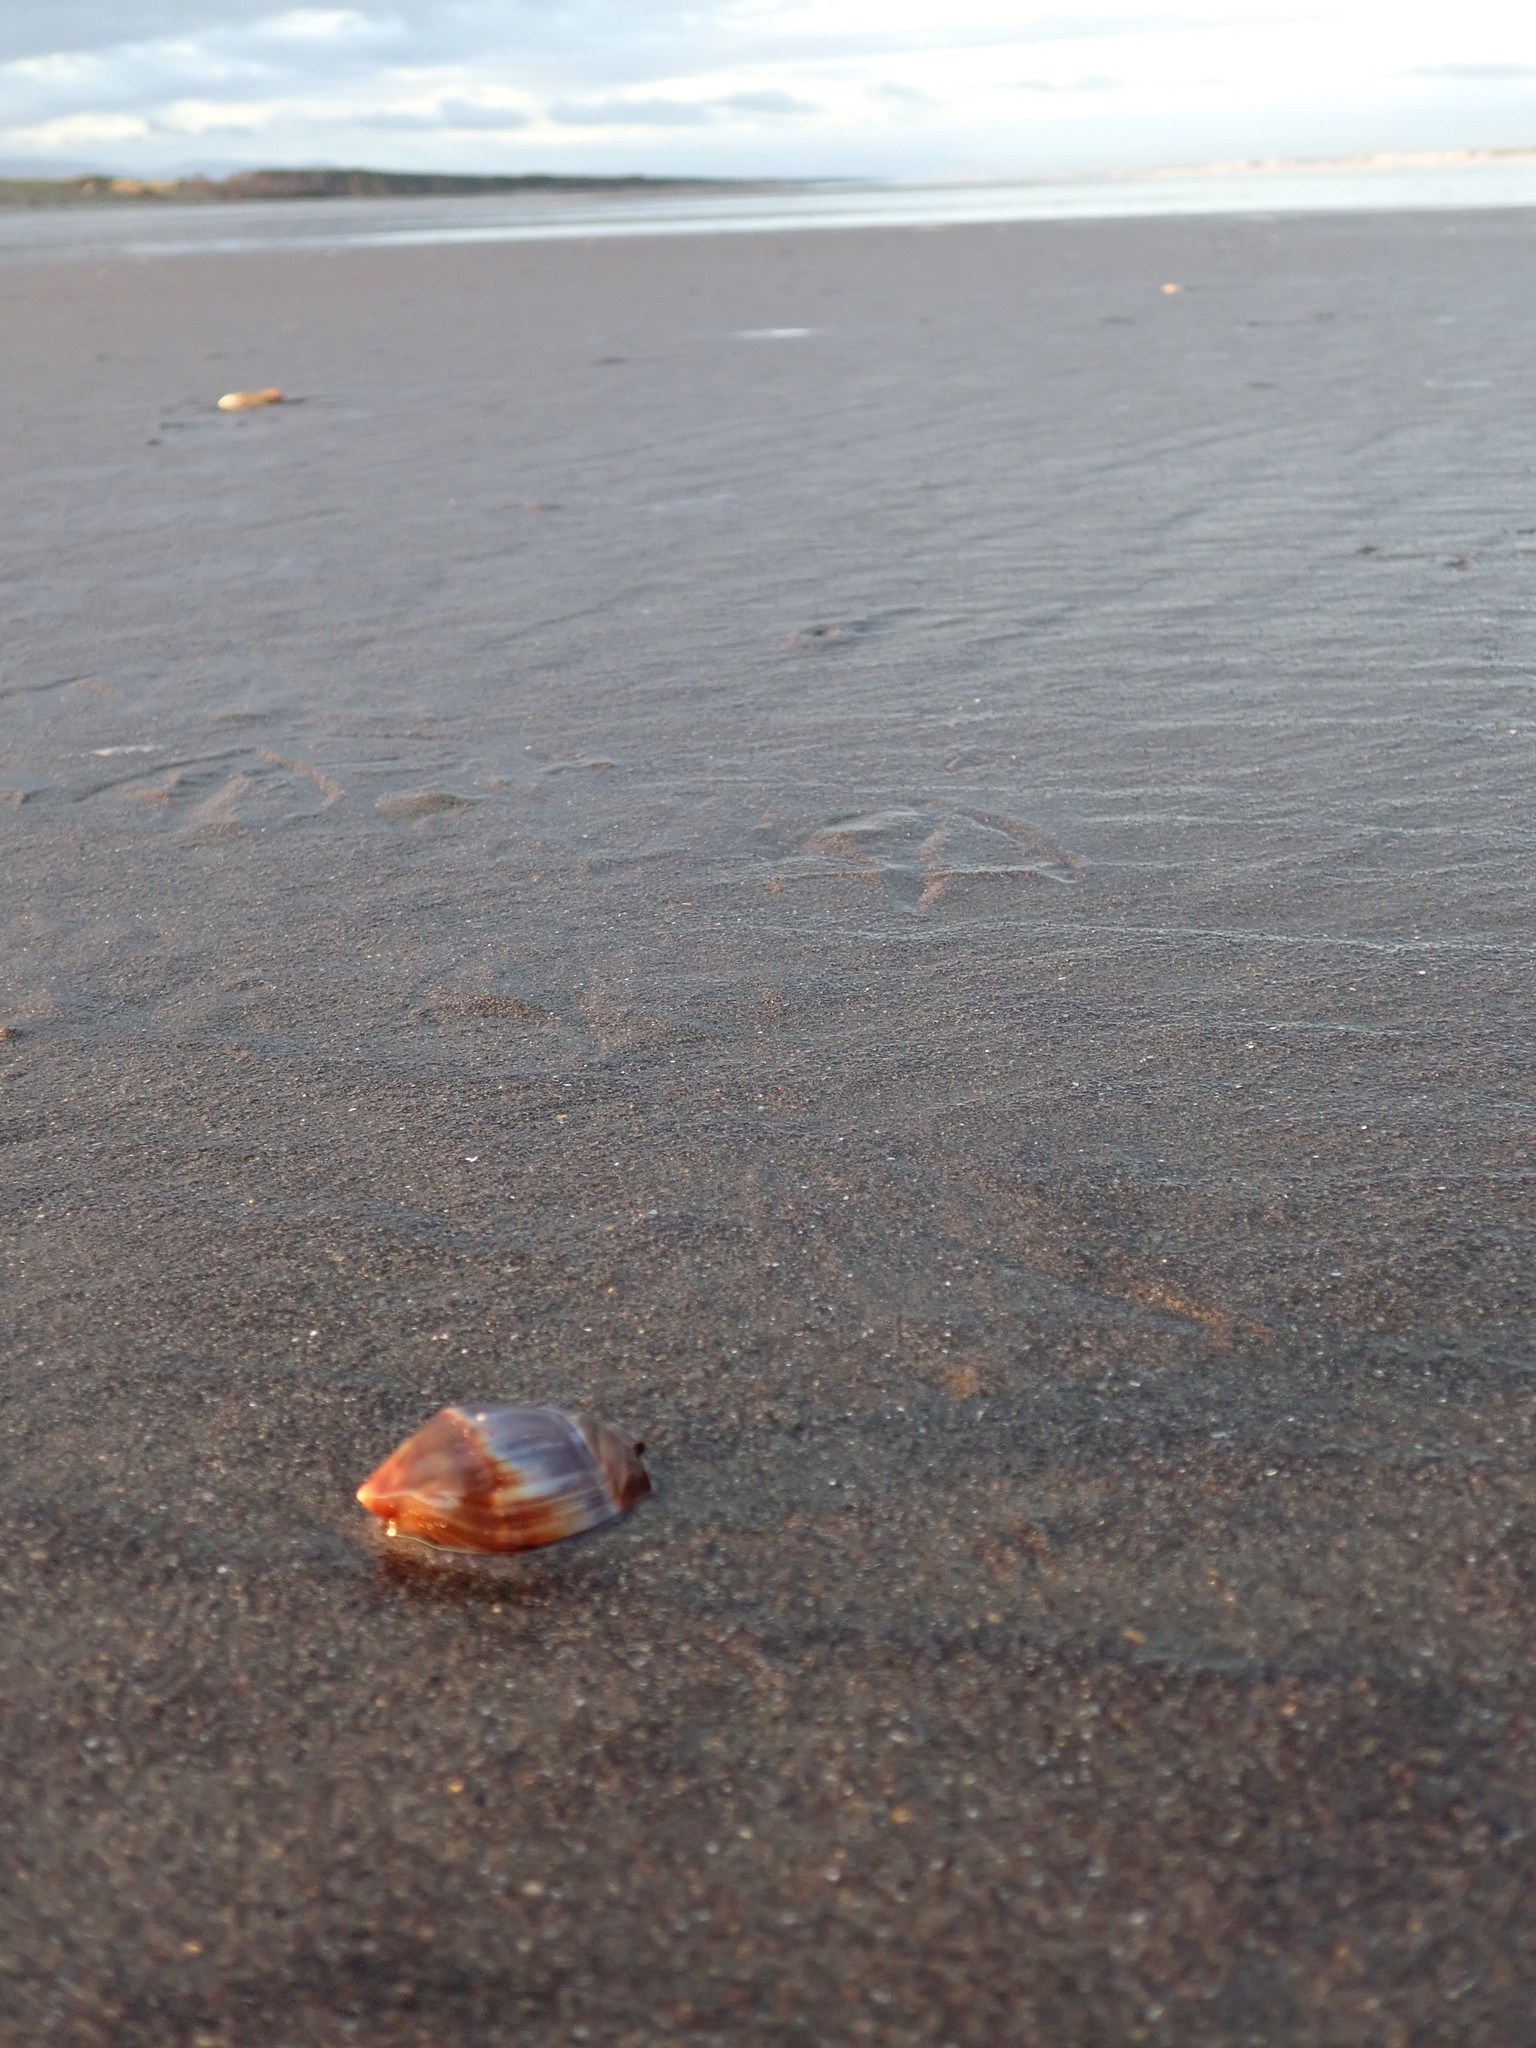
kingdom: Animalia
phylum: Mollusca
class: Gastropoda
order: Neogastropoda
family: Ancillariidae
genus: Amalda
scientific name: Amalda australis
